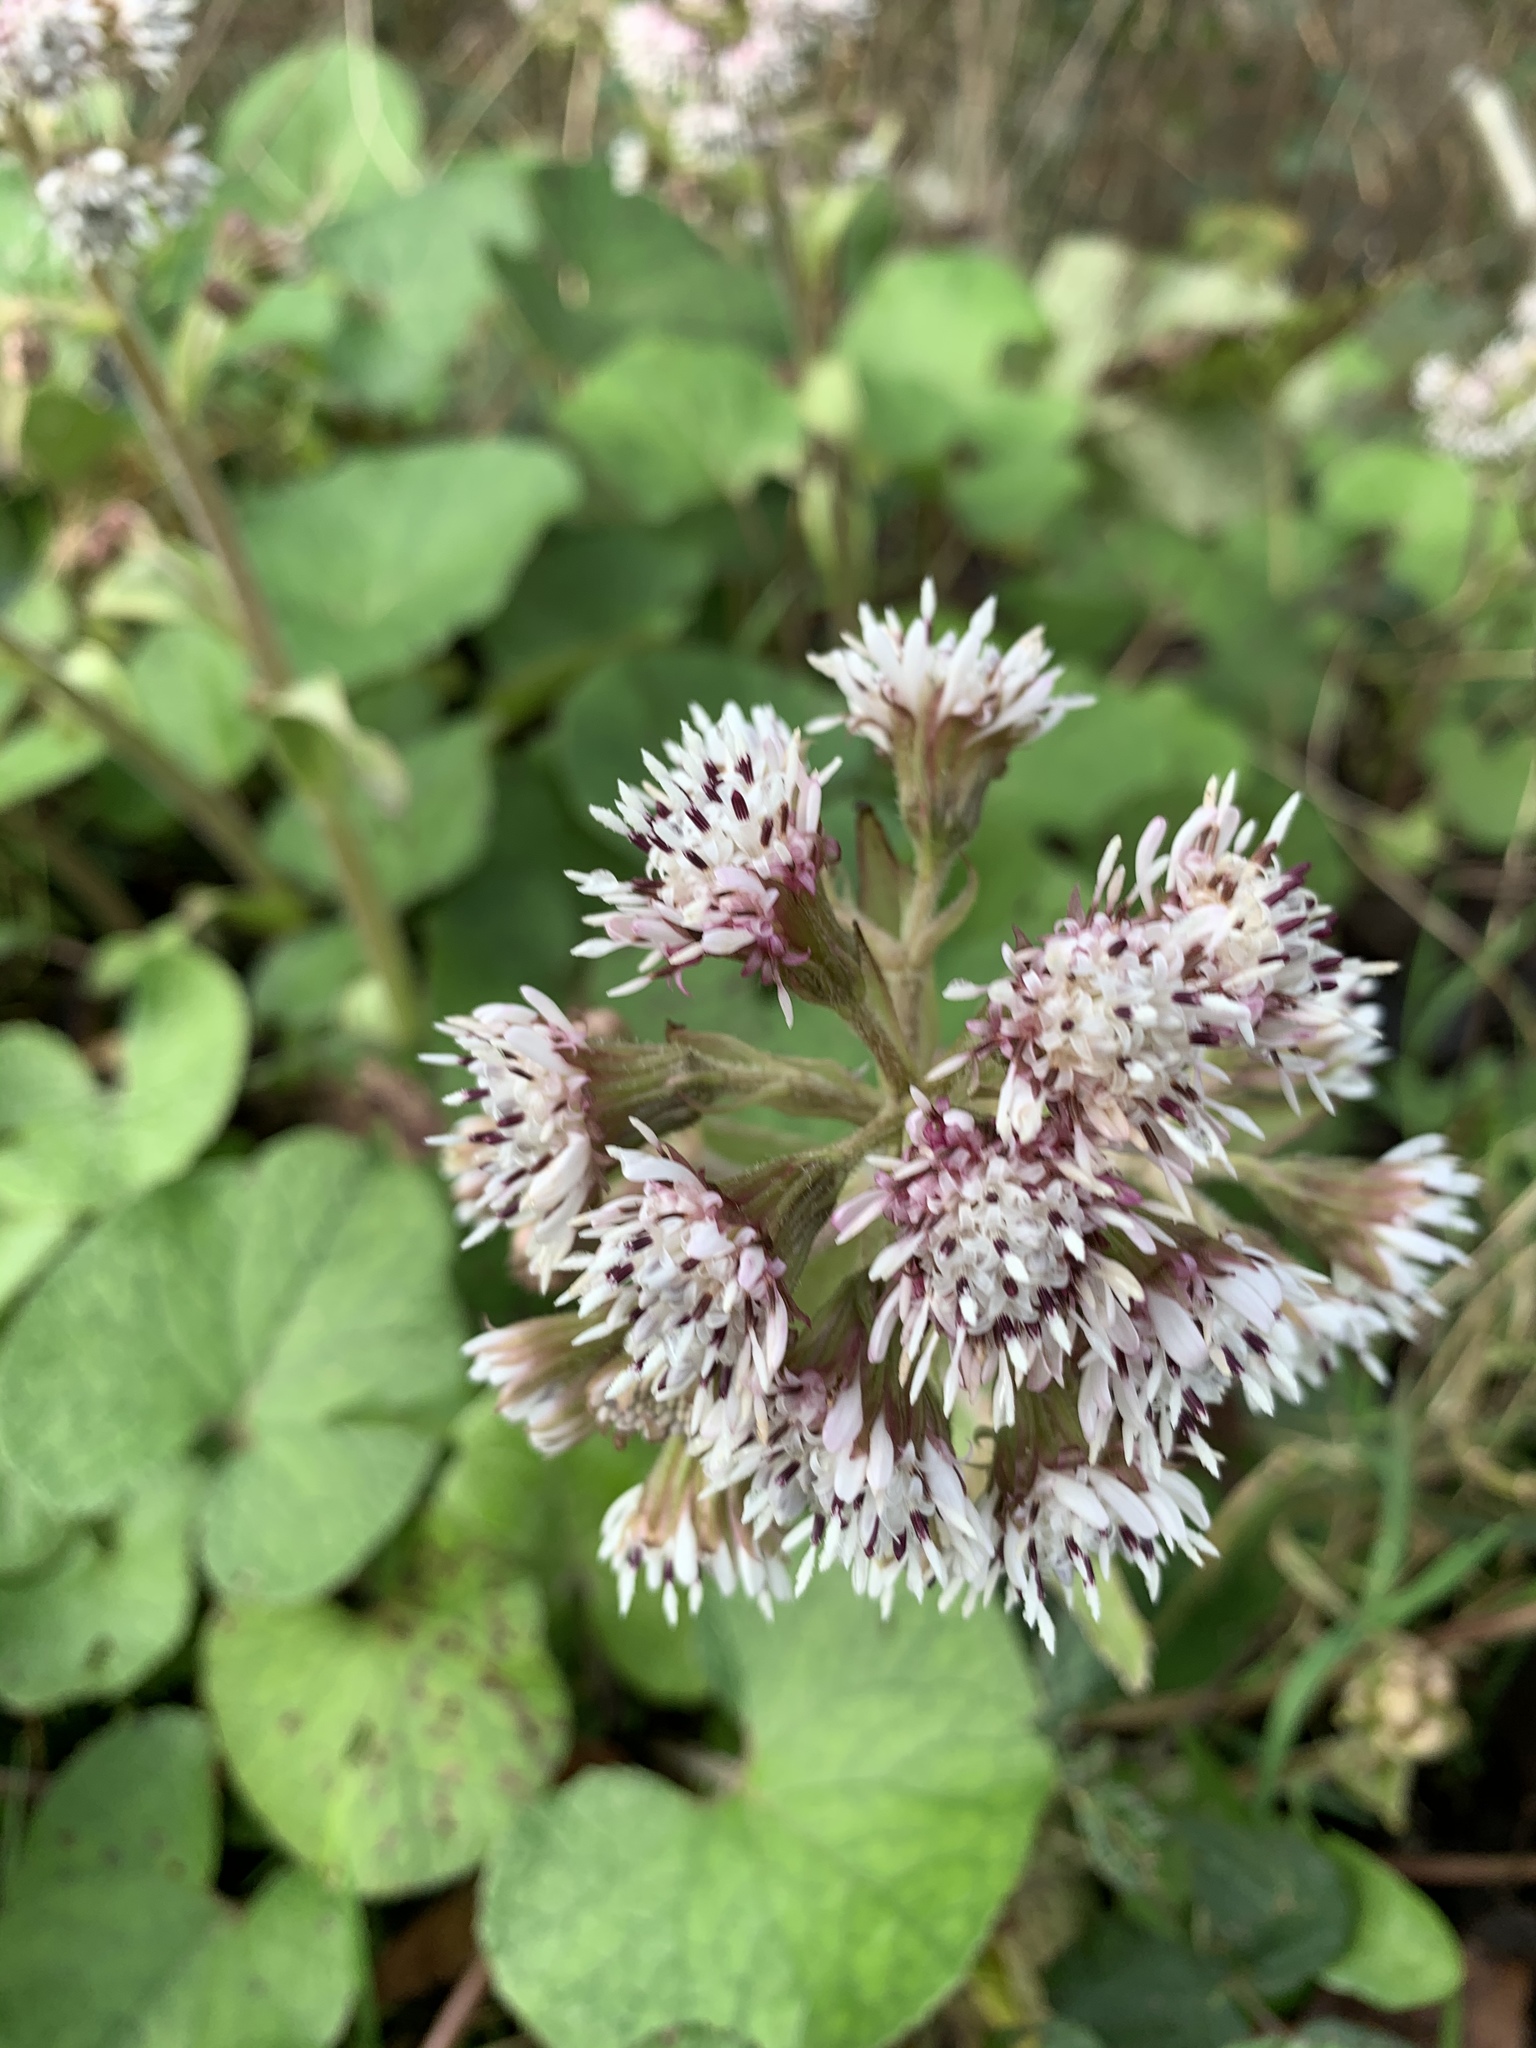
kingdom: Plantae
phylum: Tracheophyta
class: Magnoliopsida
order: Asterales
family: Asteraceae
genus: Petasites
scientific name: Petasites pyrenaicus
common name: Winter heliotrope
